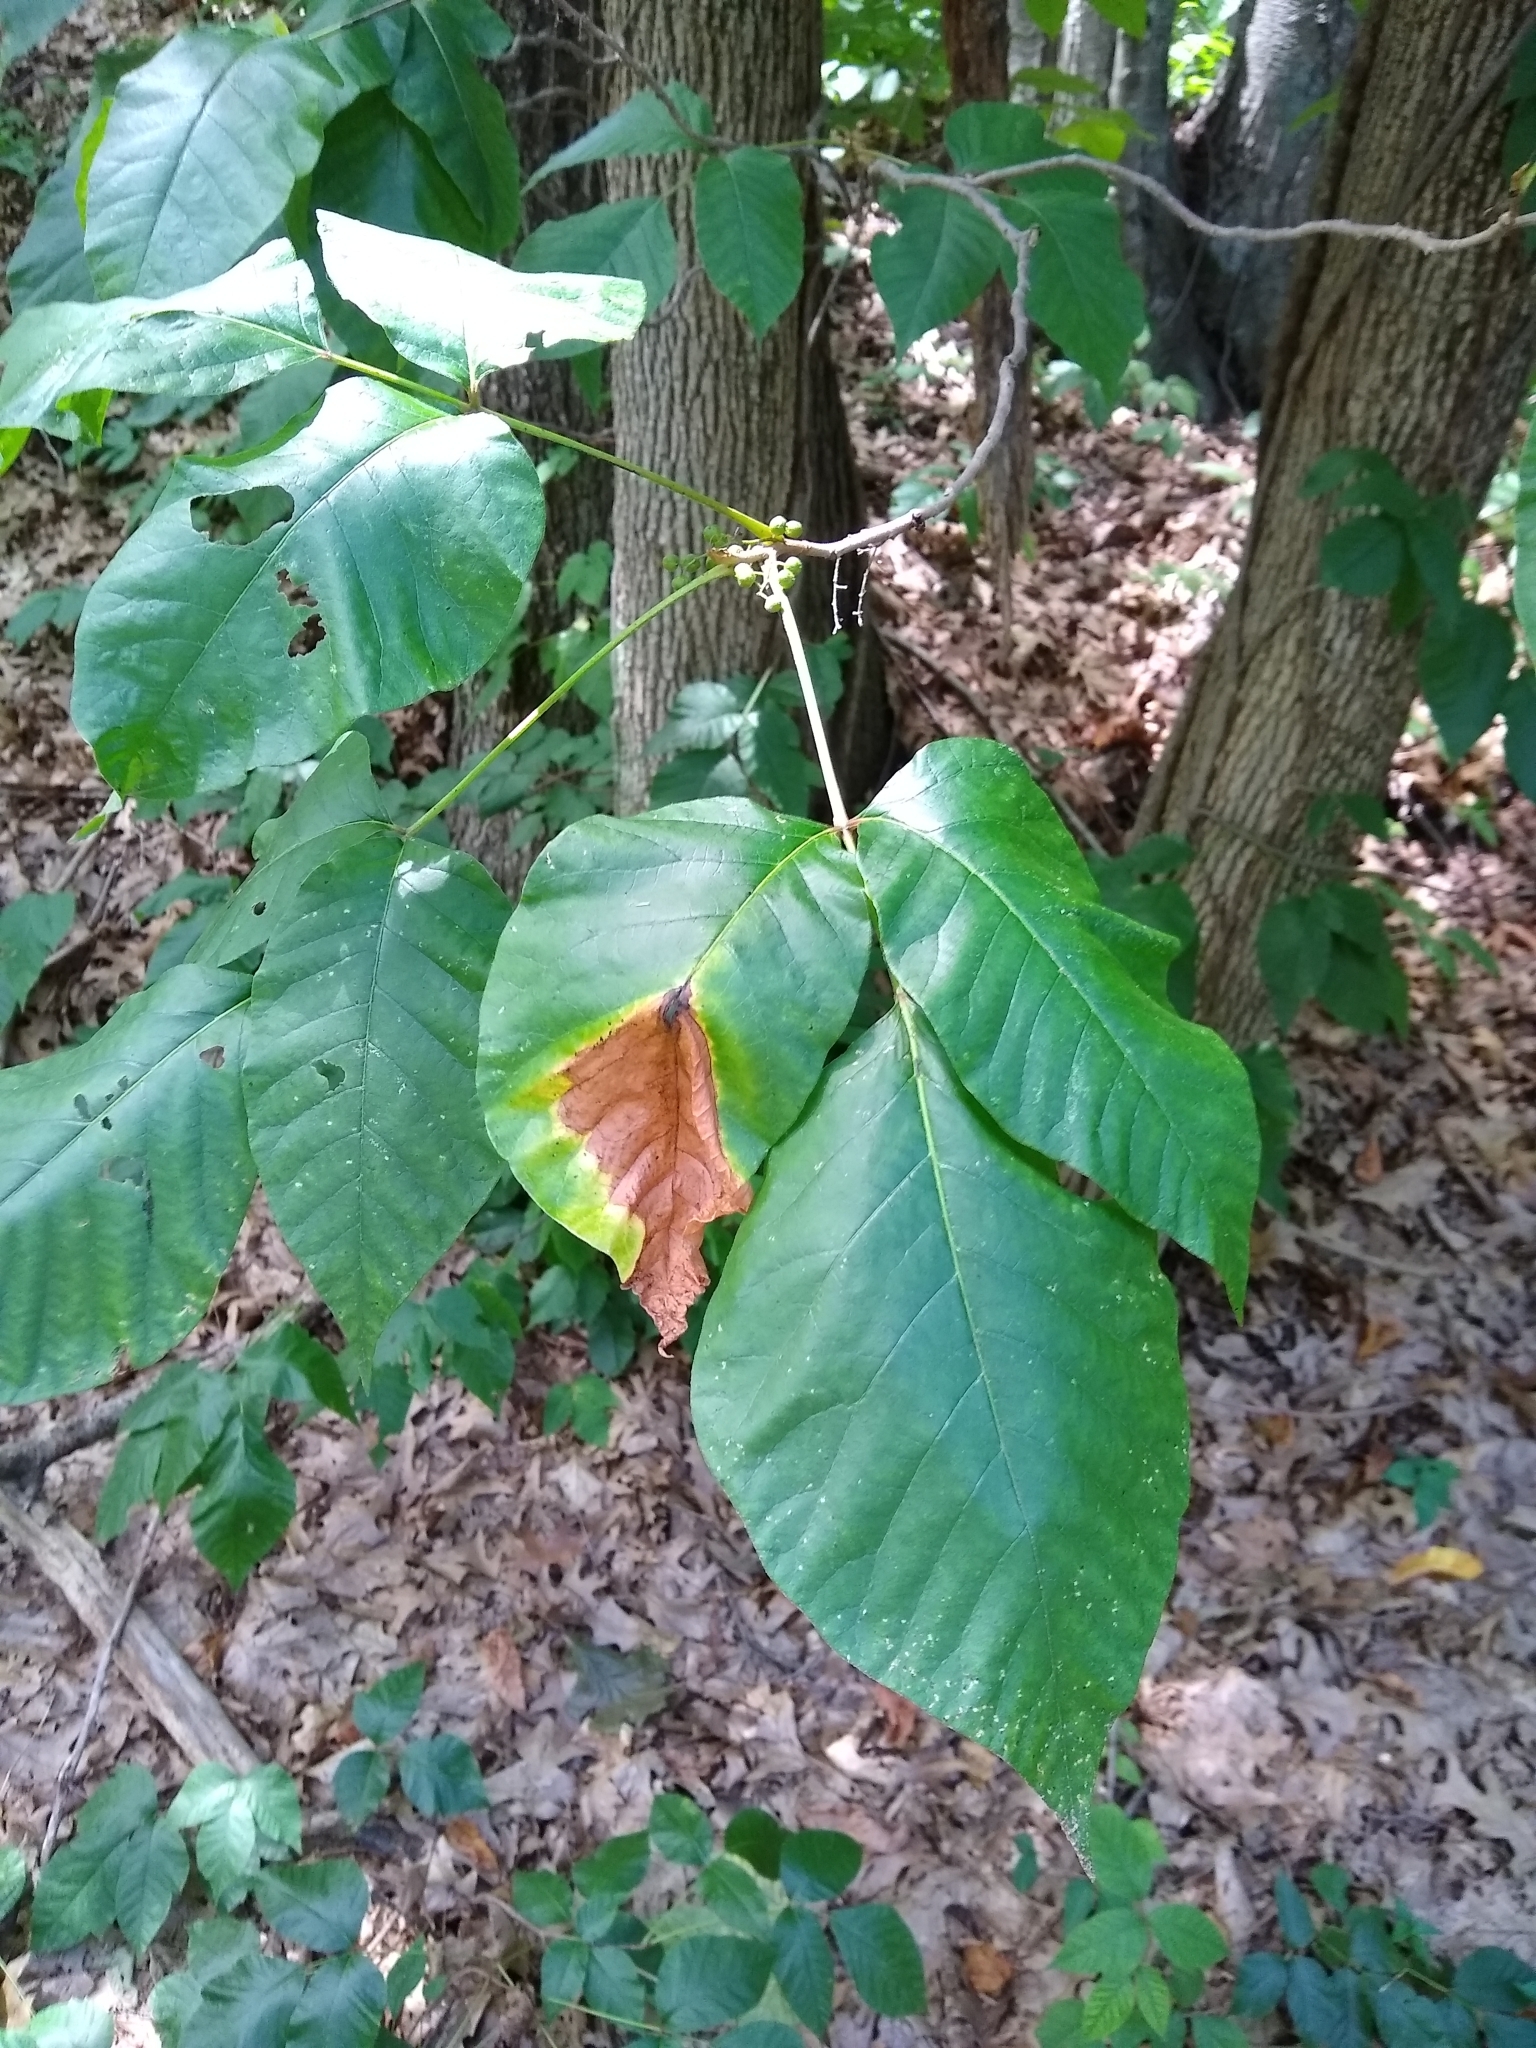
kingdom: Plantae
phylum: Tracheophyta
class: Magnoliopsida
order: Sapindales
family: Anacardiaceae
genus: Toxicodendron
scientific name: Toxicodendron radicans
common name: Poison ivy
